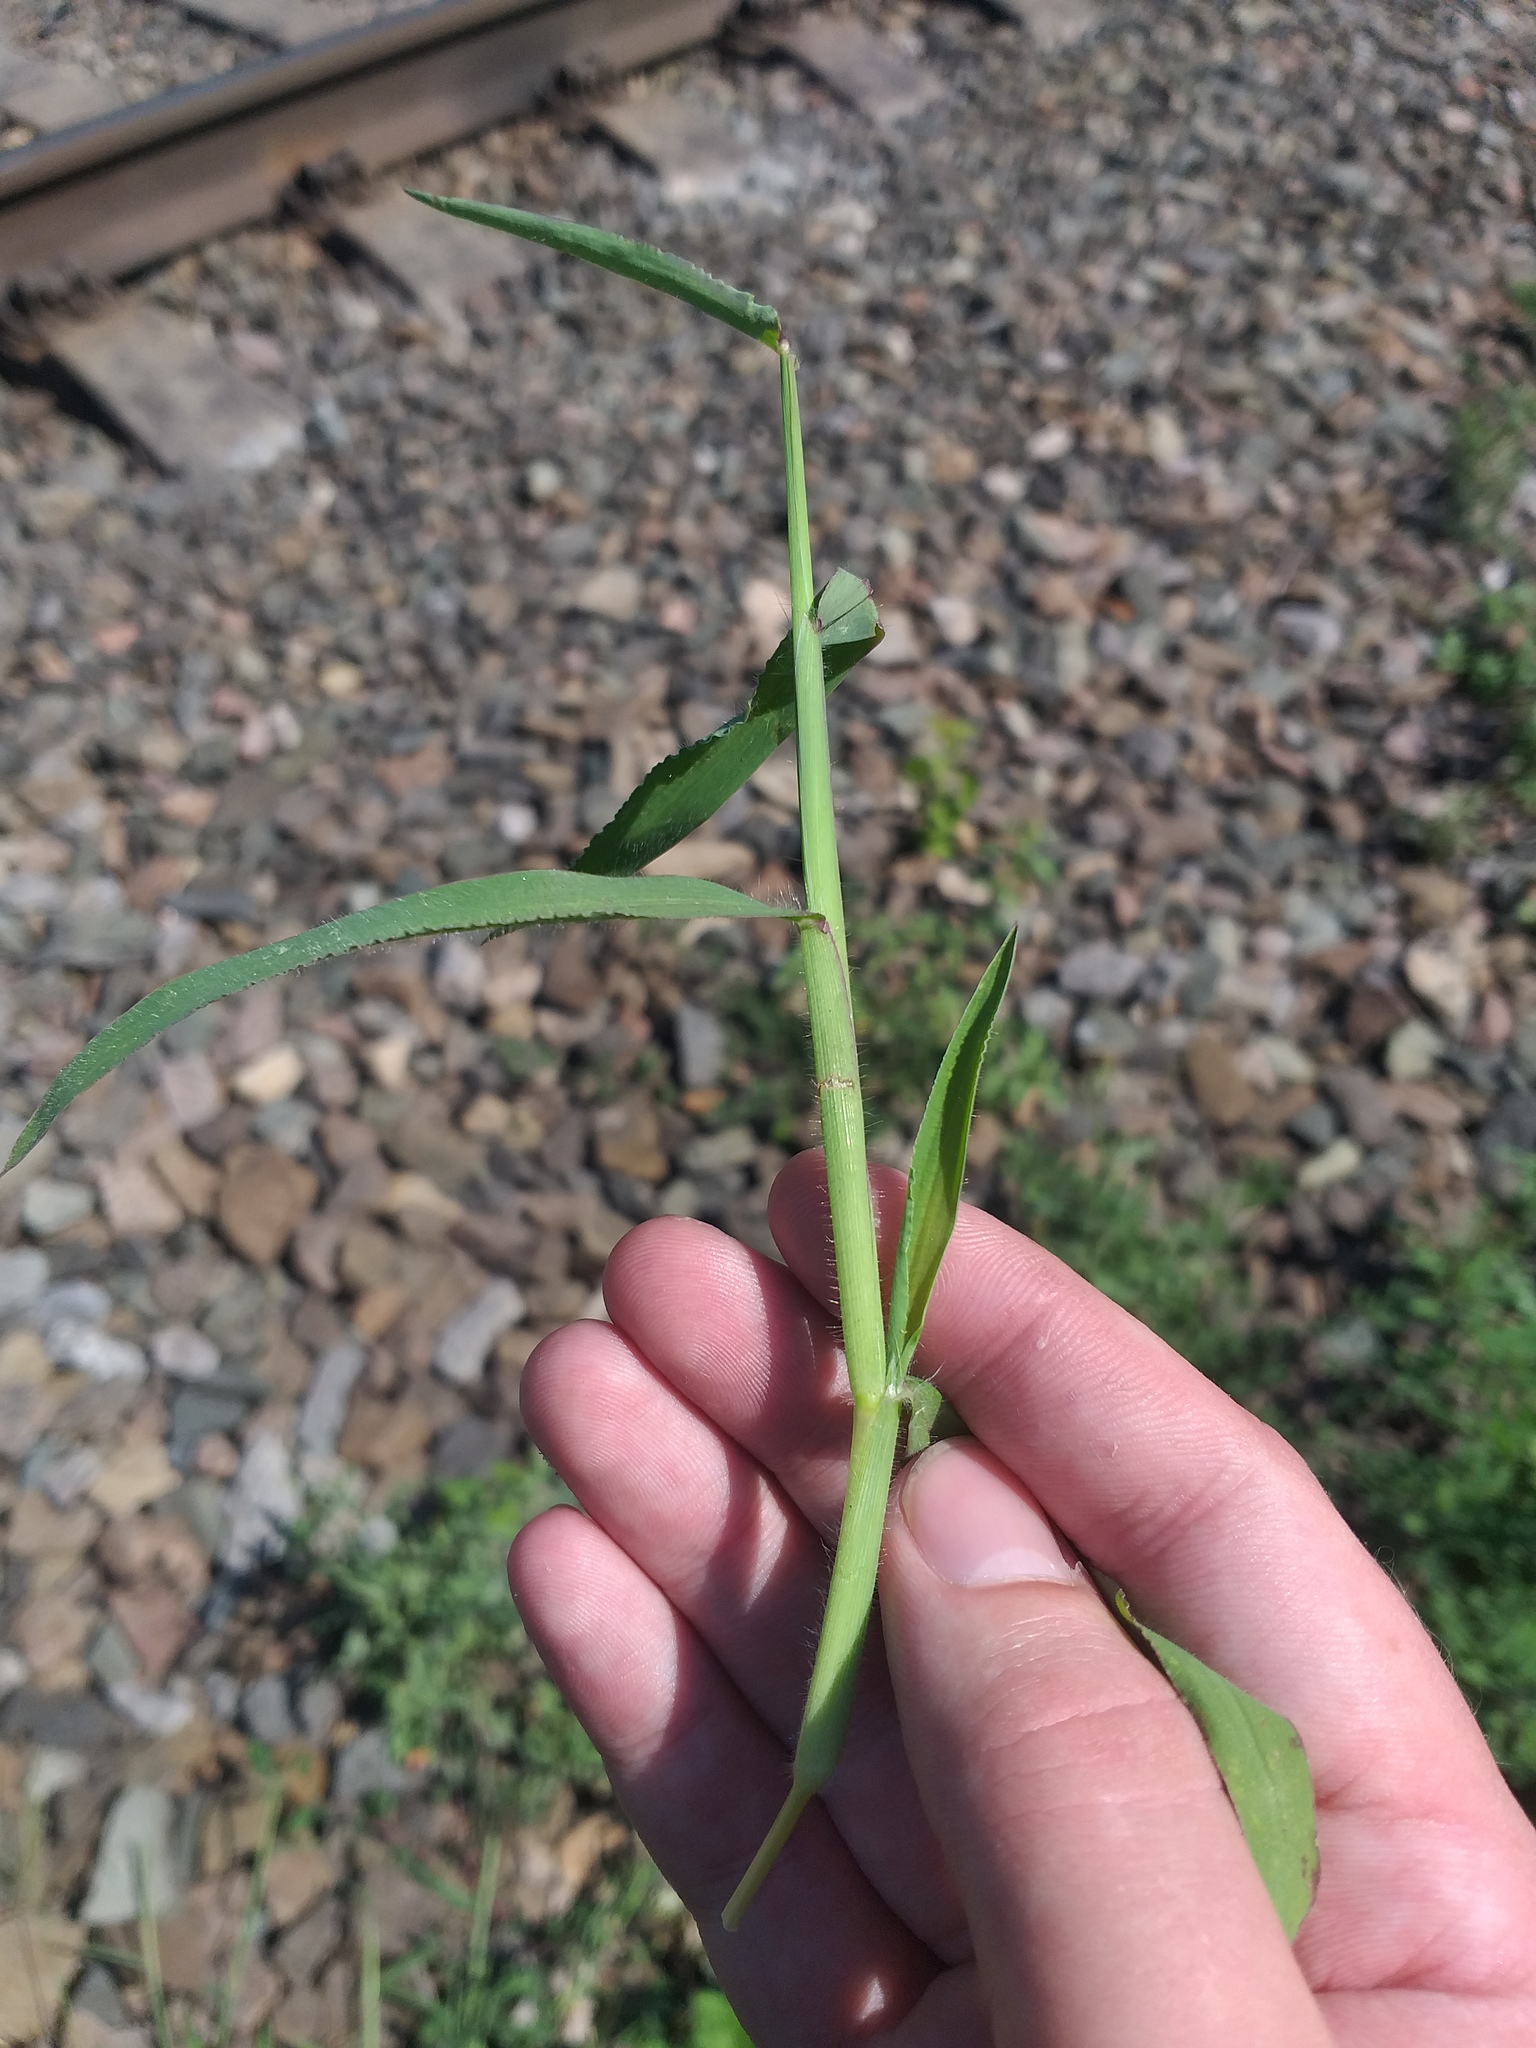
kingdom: Plantae
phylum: Tracheophyta
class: Liliopsida
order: Poales
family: Poaceae
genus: Digitaria
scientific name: Digitaria sanguinalis
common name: Hairy crabgrass
